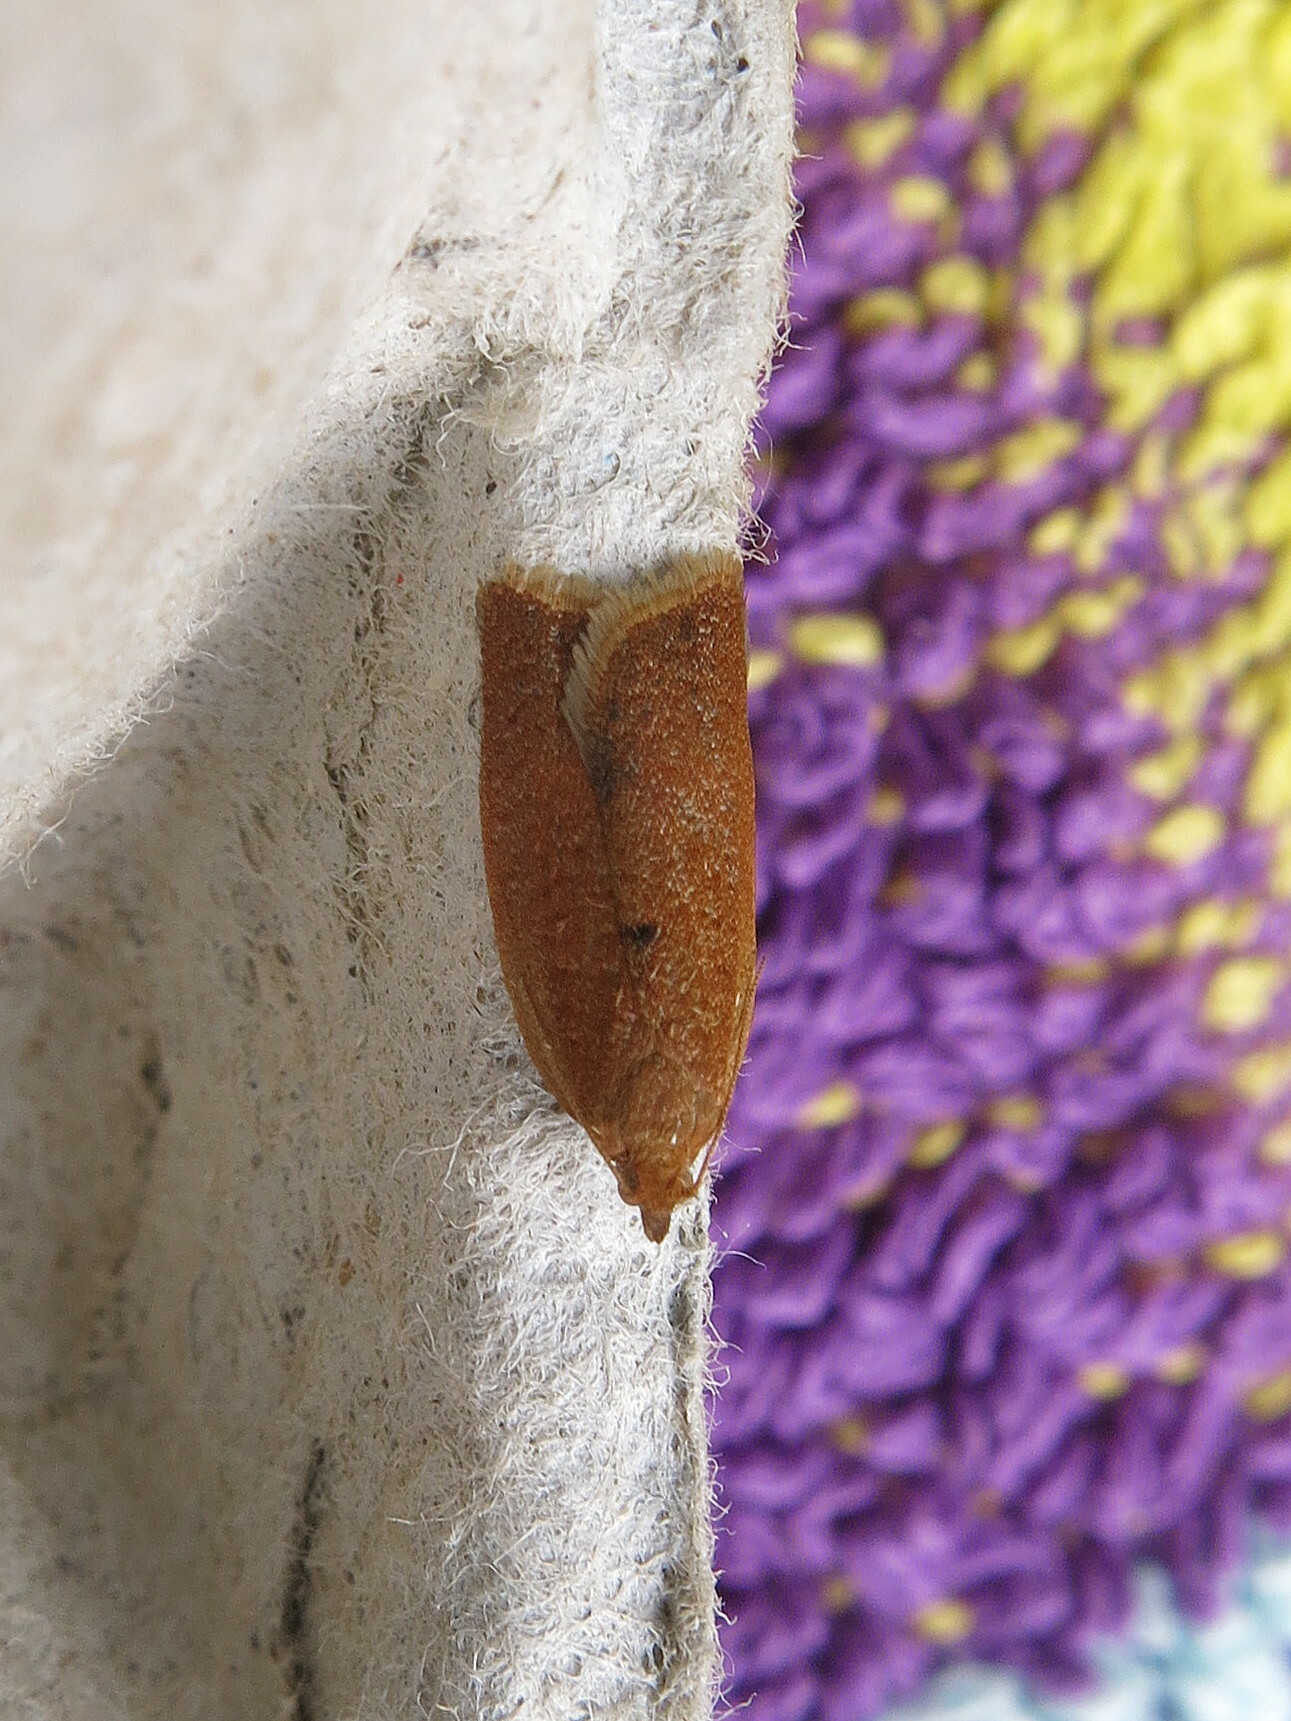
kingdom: Animalia
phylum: Arthropoda
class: Insecta
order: Lepidoptera
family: Tortricidae
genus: Clepsis
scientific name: Clepsis consimilana
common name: Privet tortrix
